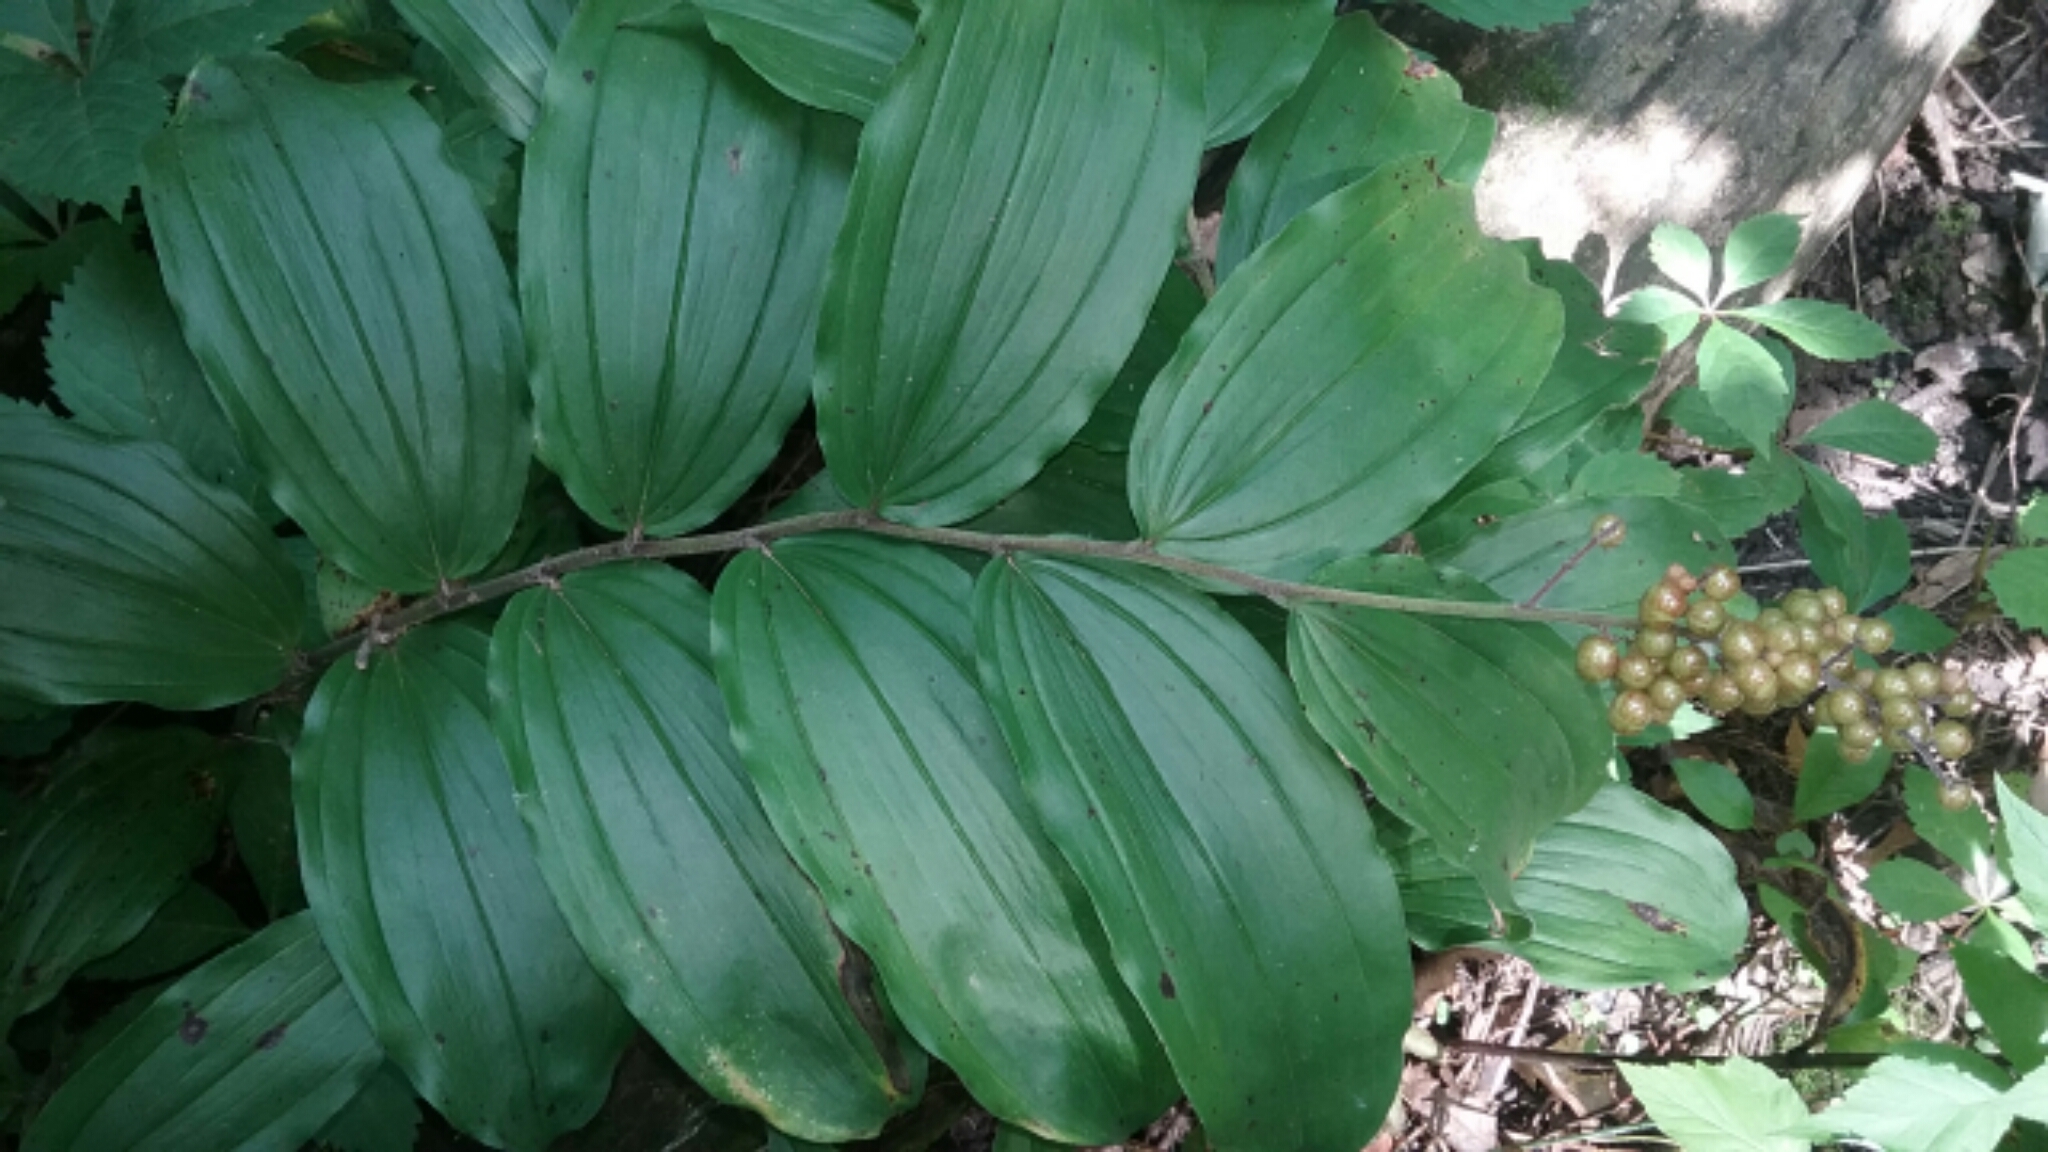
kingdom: Plantae
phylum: Tracheophyta
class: Liliopsida
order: Asparagales
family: Asparagaceae
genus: Maianthemum
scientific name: Maianthemum racemosum
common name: False spikenard
